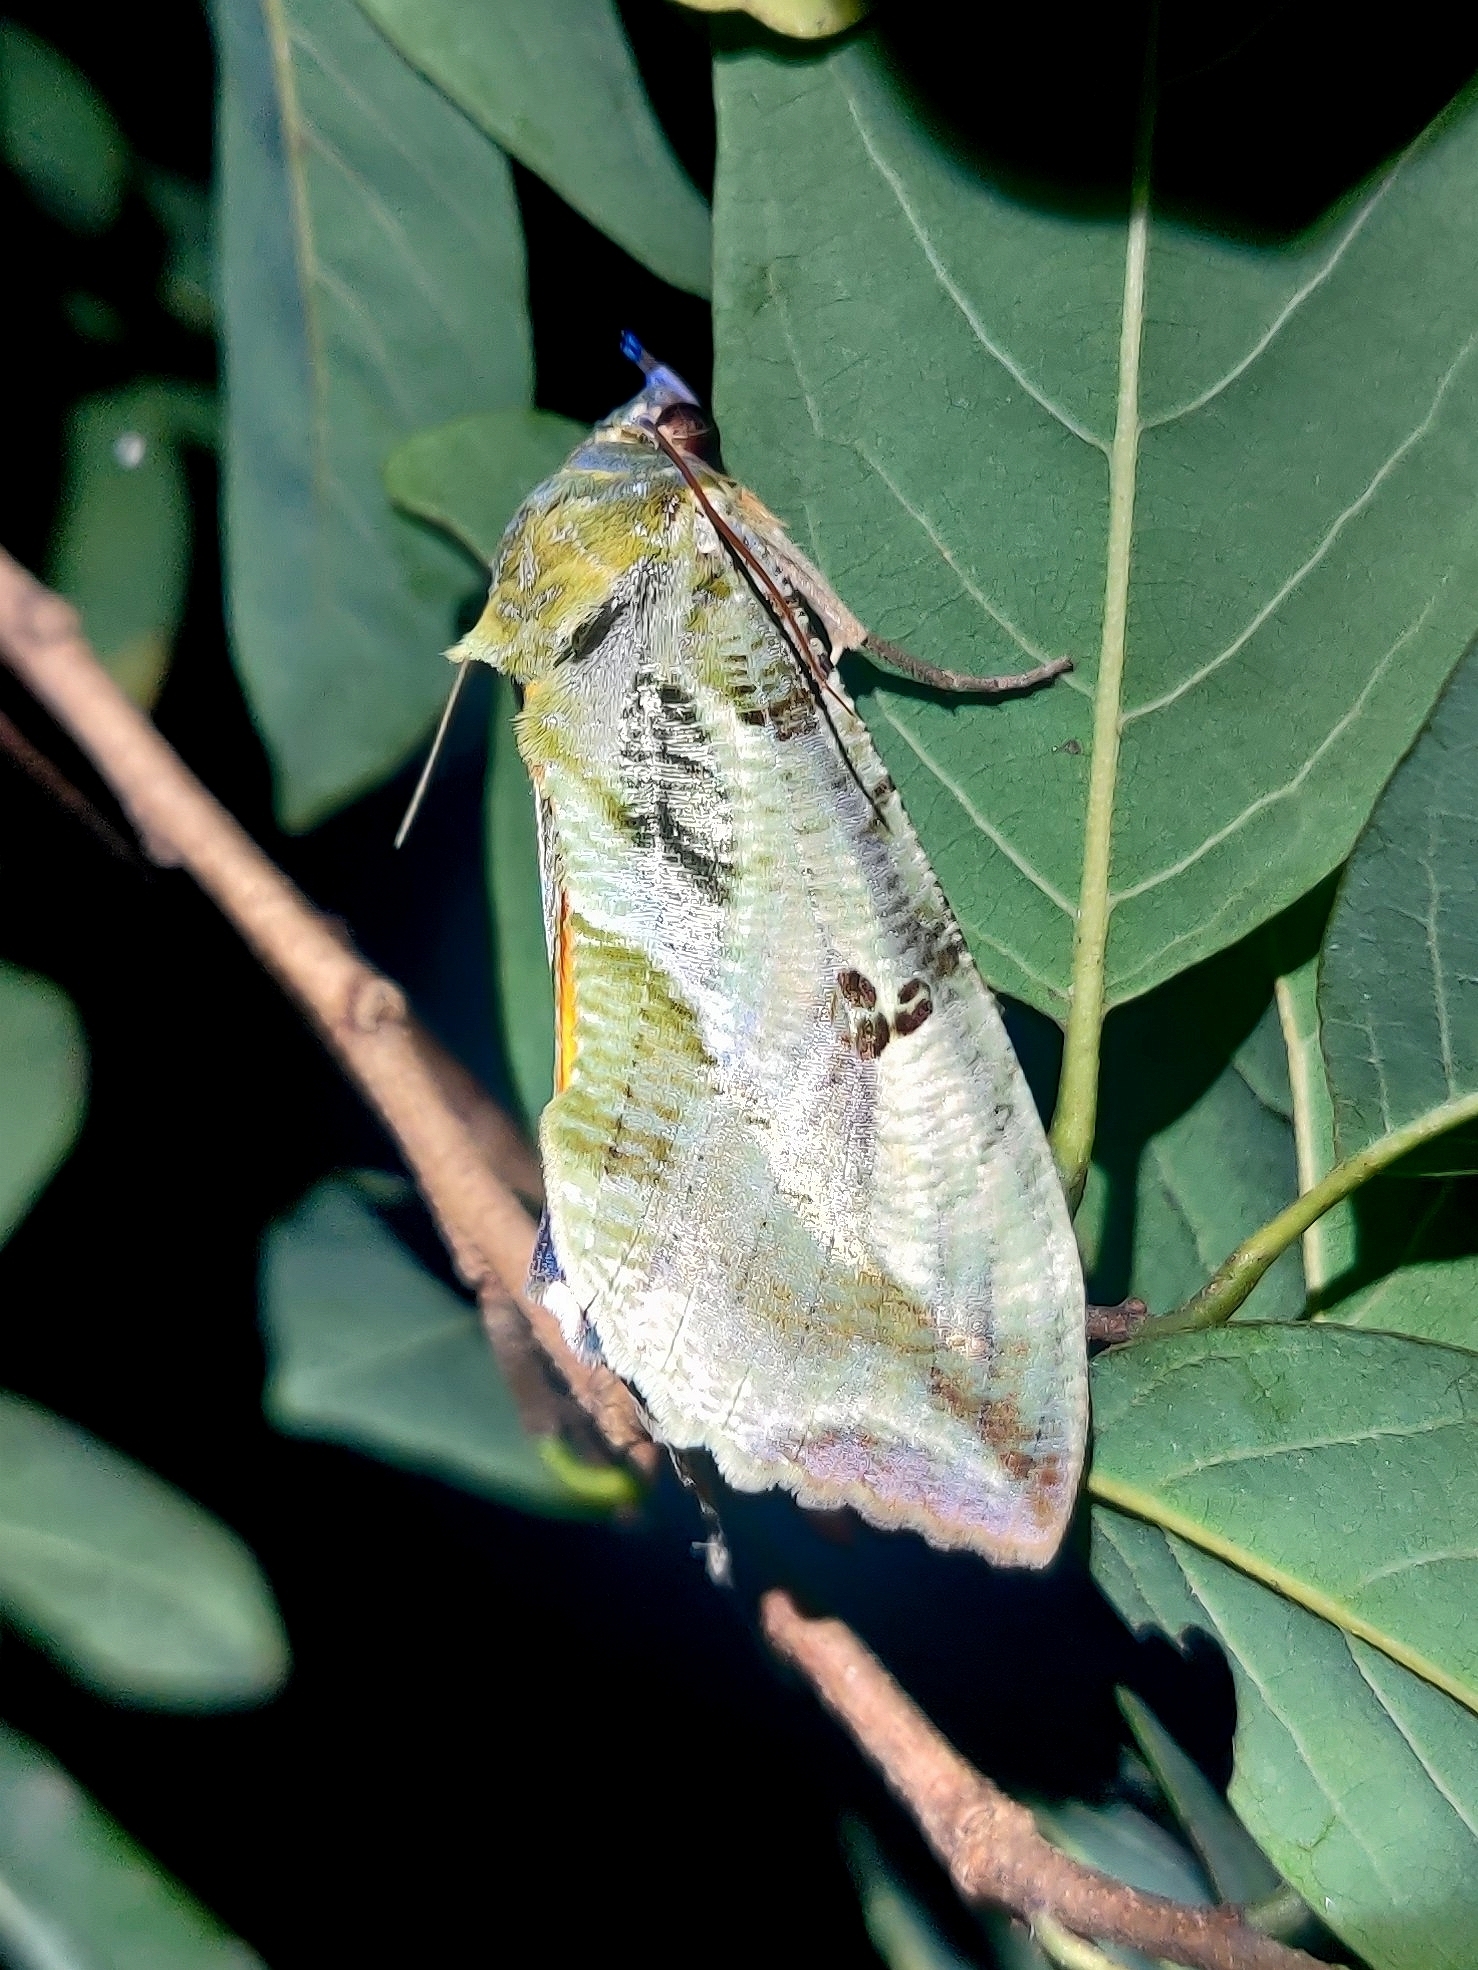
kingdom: Animalia
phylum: Arthropoda
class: Insecta
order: Lepidoptera
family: Erebidae
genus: Eudocima
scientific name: Eudocima materna
